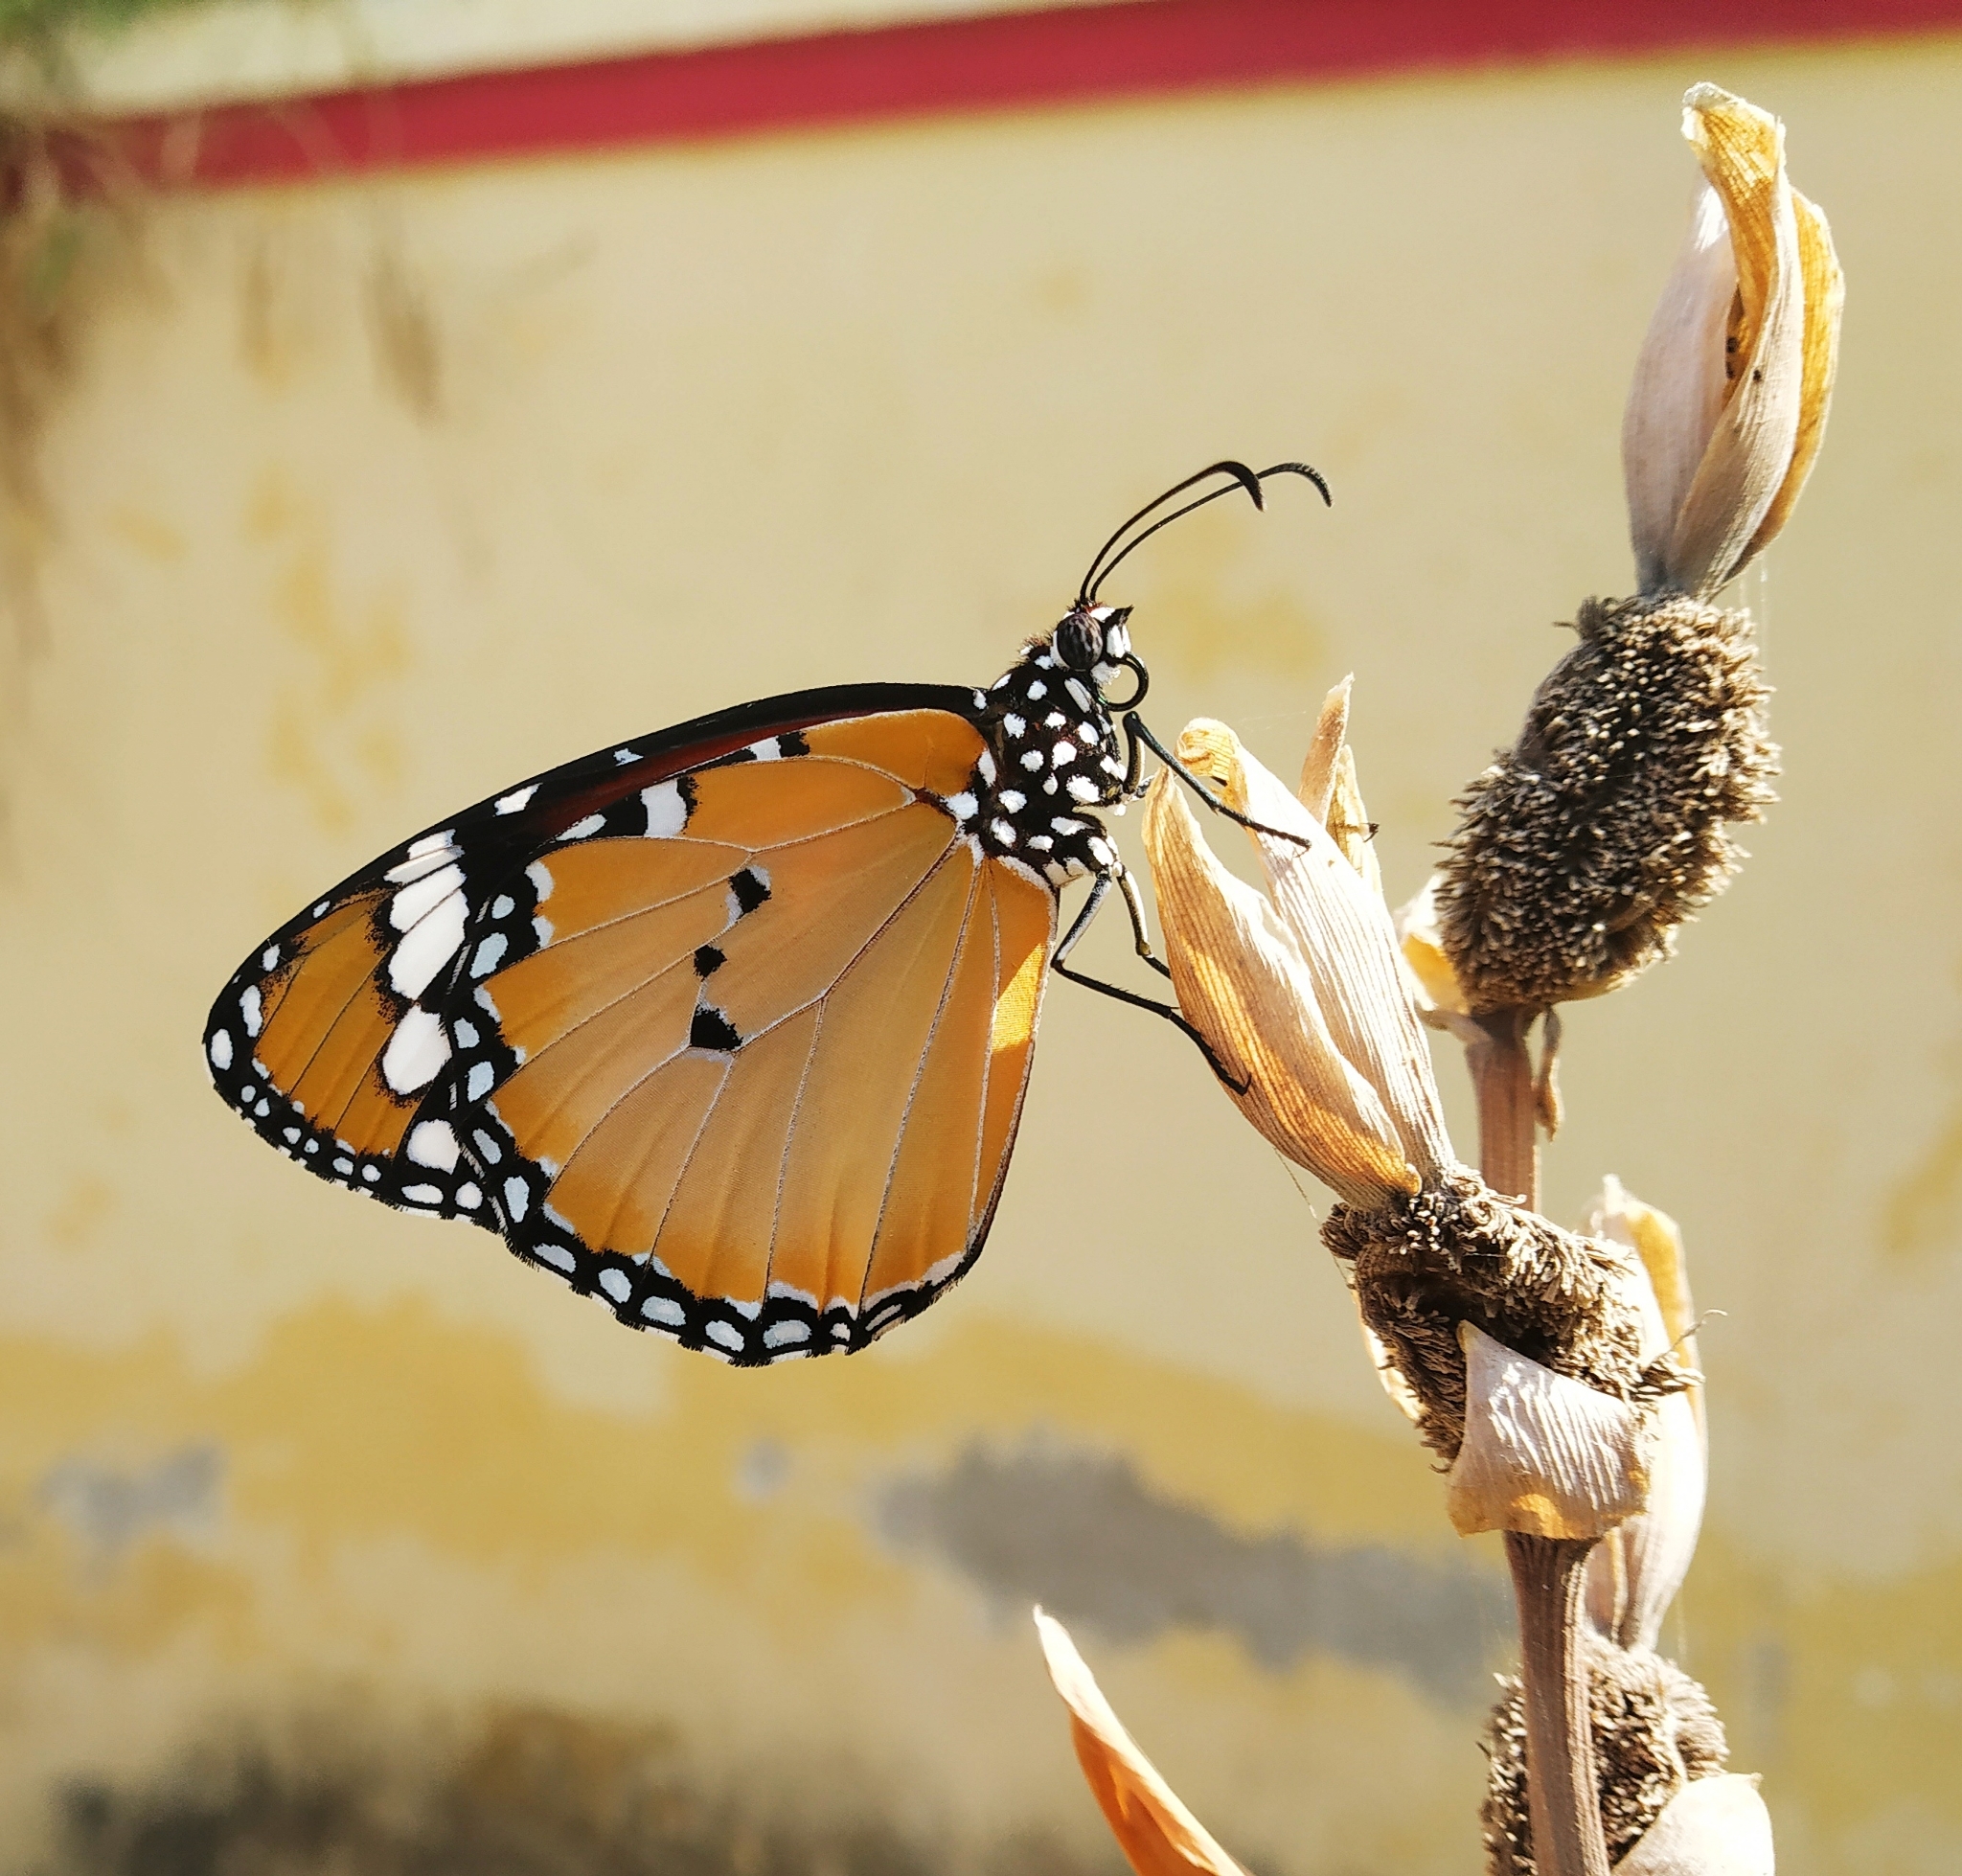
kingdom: Animalia
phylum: Arthropoda
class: Insecta
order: Lepidoptera
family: Nymphalidae
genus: Danaus
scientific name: Danaus chrysippus
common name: Plain tiger
